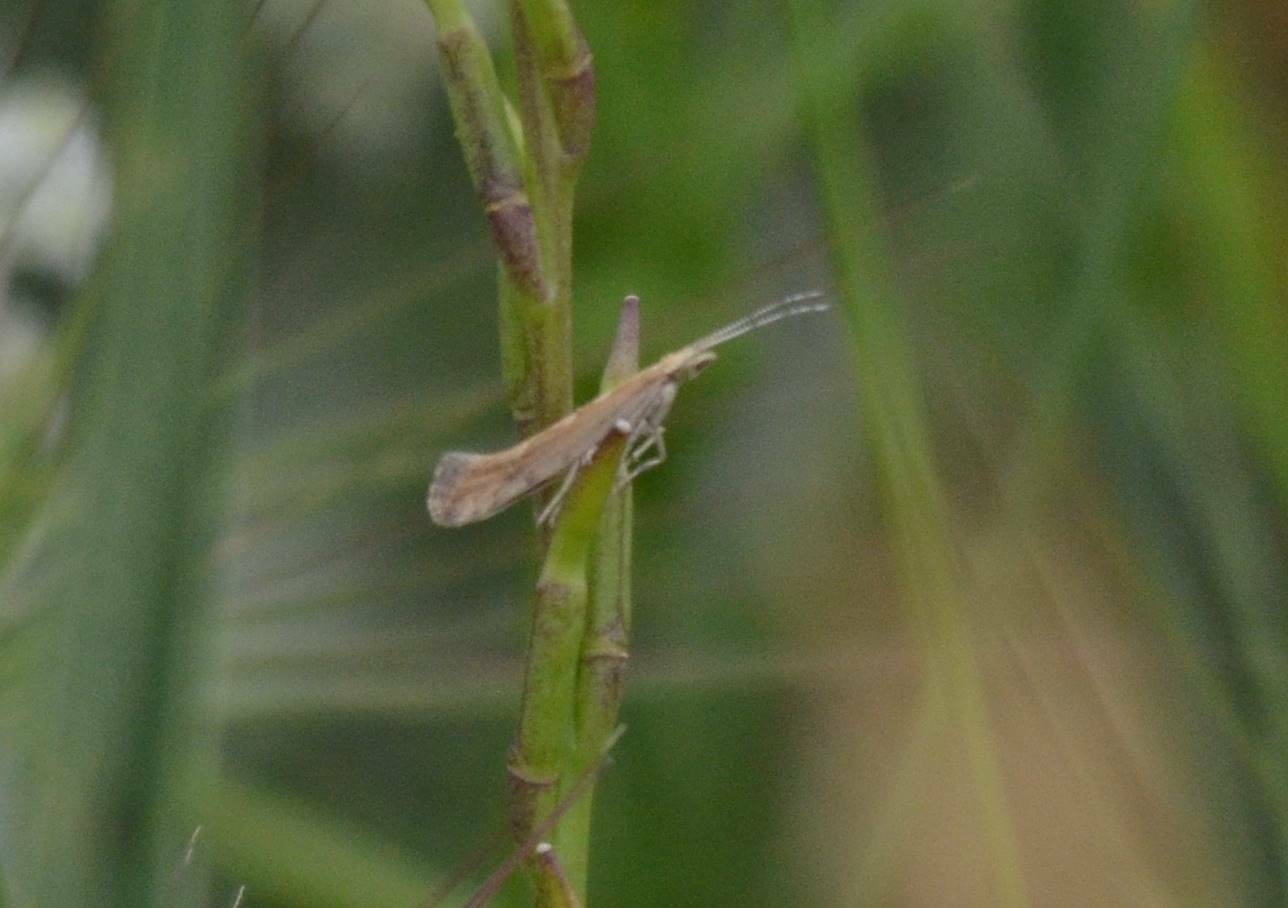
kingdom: Animalia
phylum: Arthropoda
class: Insecta
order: Lepidoptera
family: Plutellidae
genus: Plutella
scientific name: Plutella xylostella
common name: Diamond-back moth
